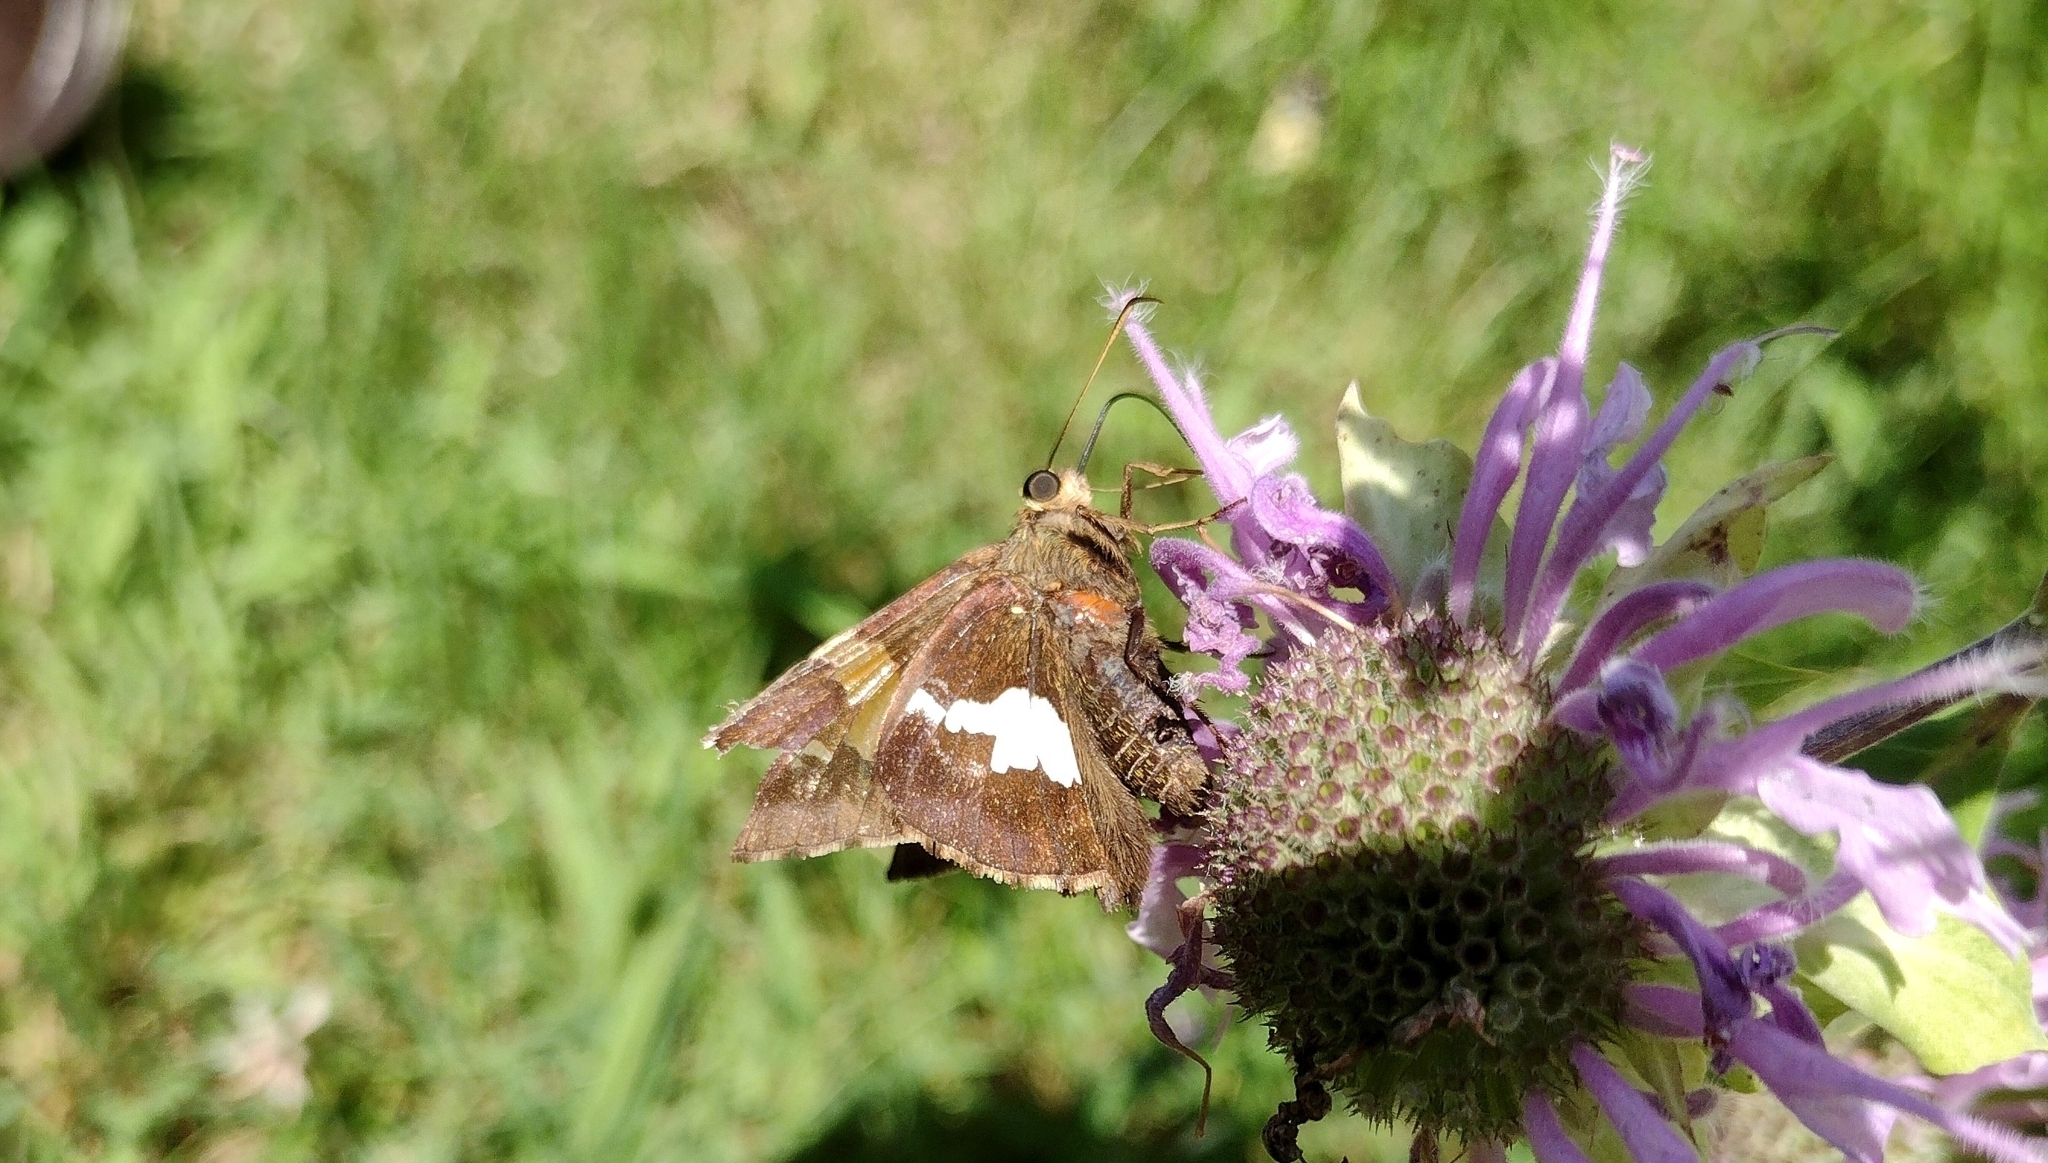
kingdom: Animalia
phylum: Arthropoda
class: Insecta
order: Lepidoptera
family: Hesperiidae
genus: Epargyreus
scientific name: Epargyreus clarus
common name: Silver-spotted skipper
